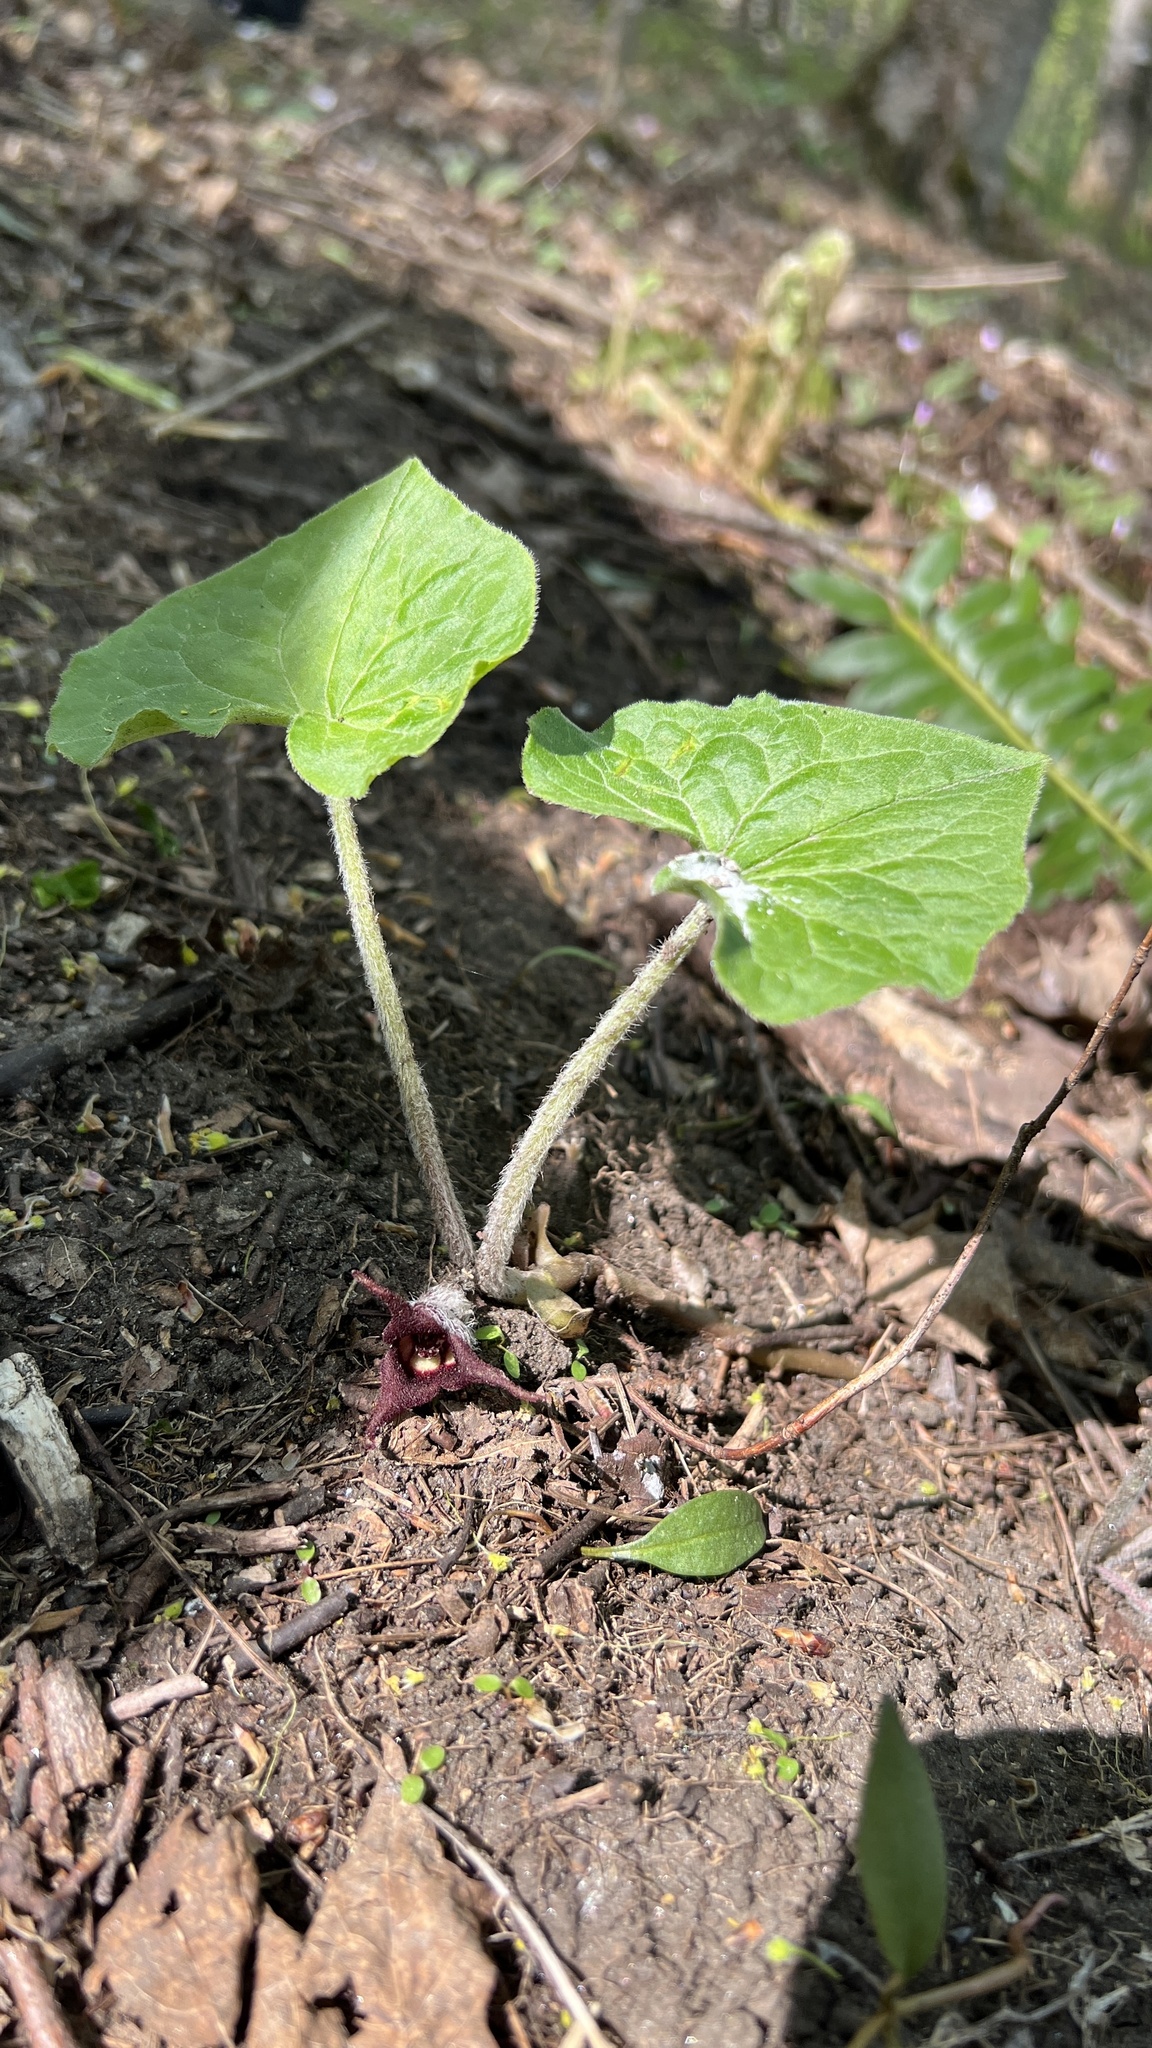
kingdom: Plantae
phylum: Tracheophyta
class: Magnoliopsida
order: Piperales
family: Aristolochiaceae
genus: Asarum
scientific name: Asarum canadense
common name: Wild ginger
